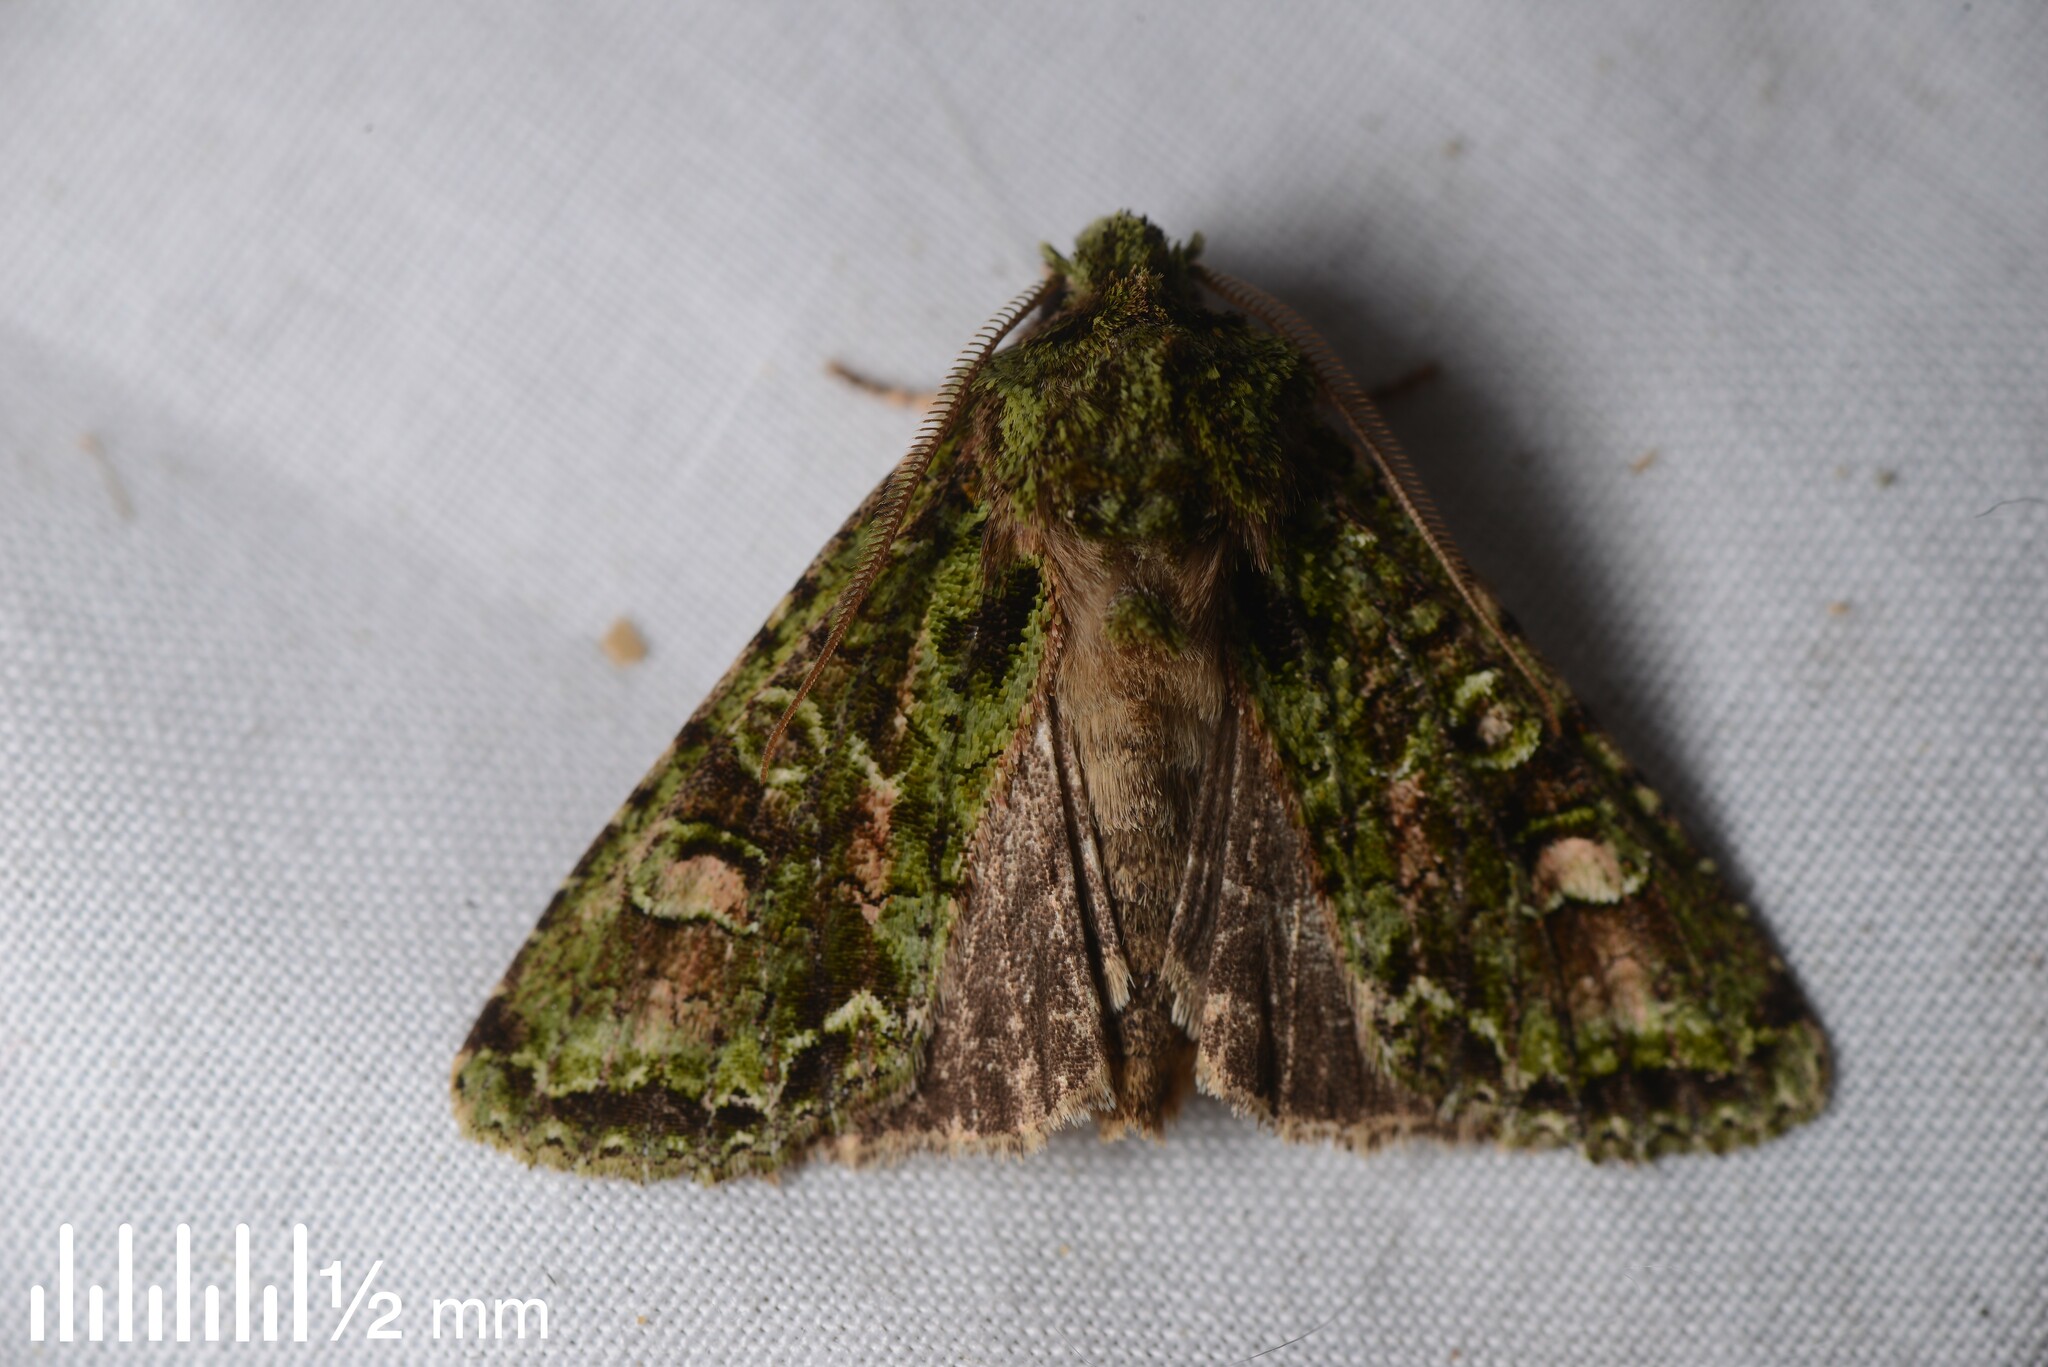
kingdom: Animalia
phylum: Arthropoda
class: Insecta
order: Lepidoptera
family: Noctuidae
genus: Ichneutica
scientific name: Ichneutica
